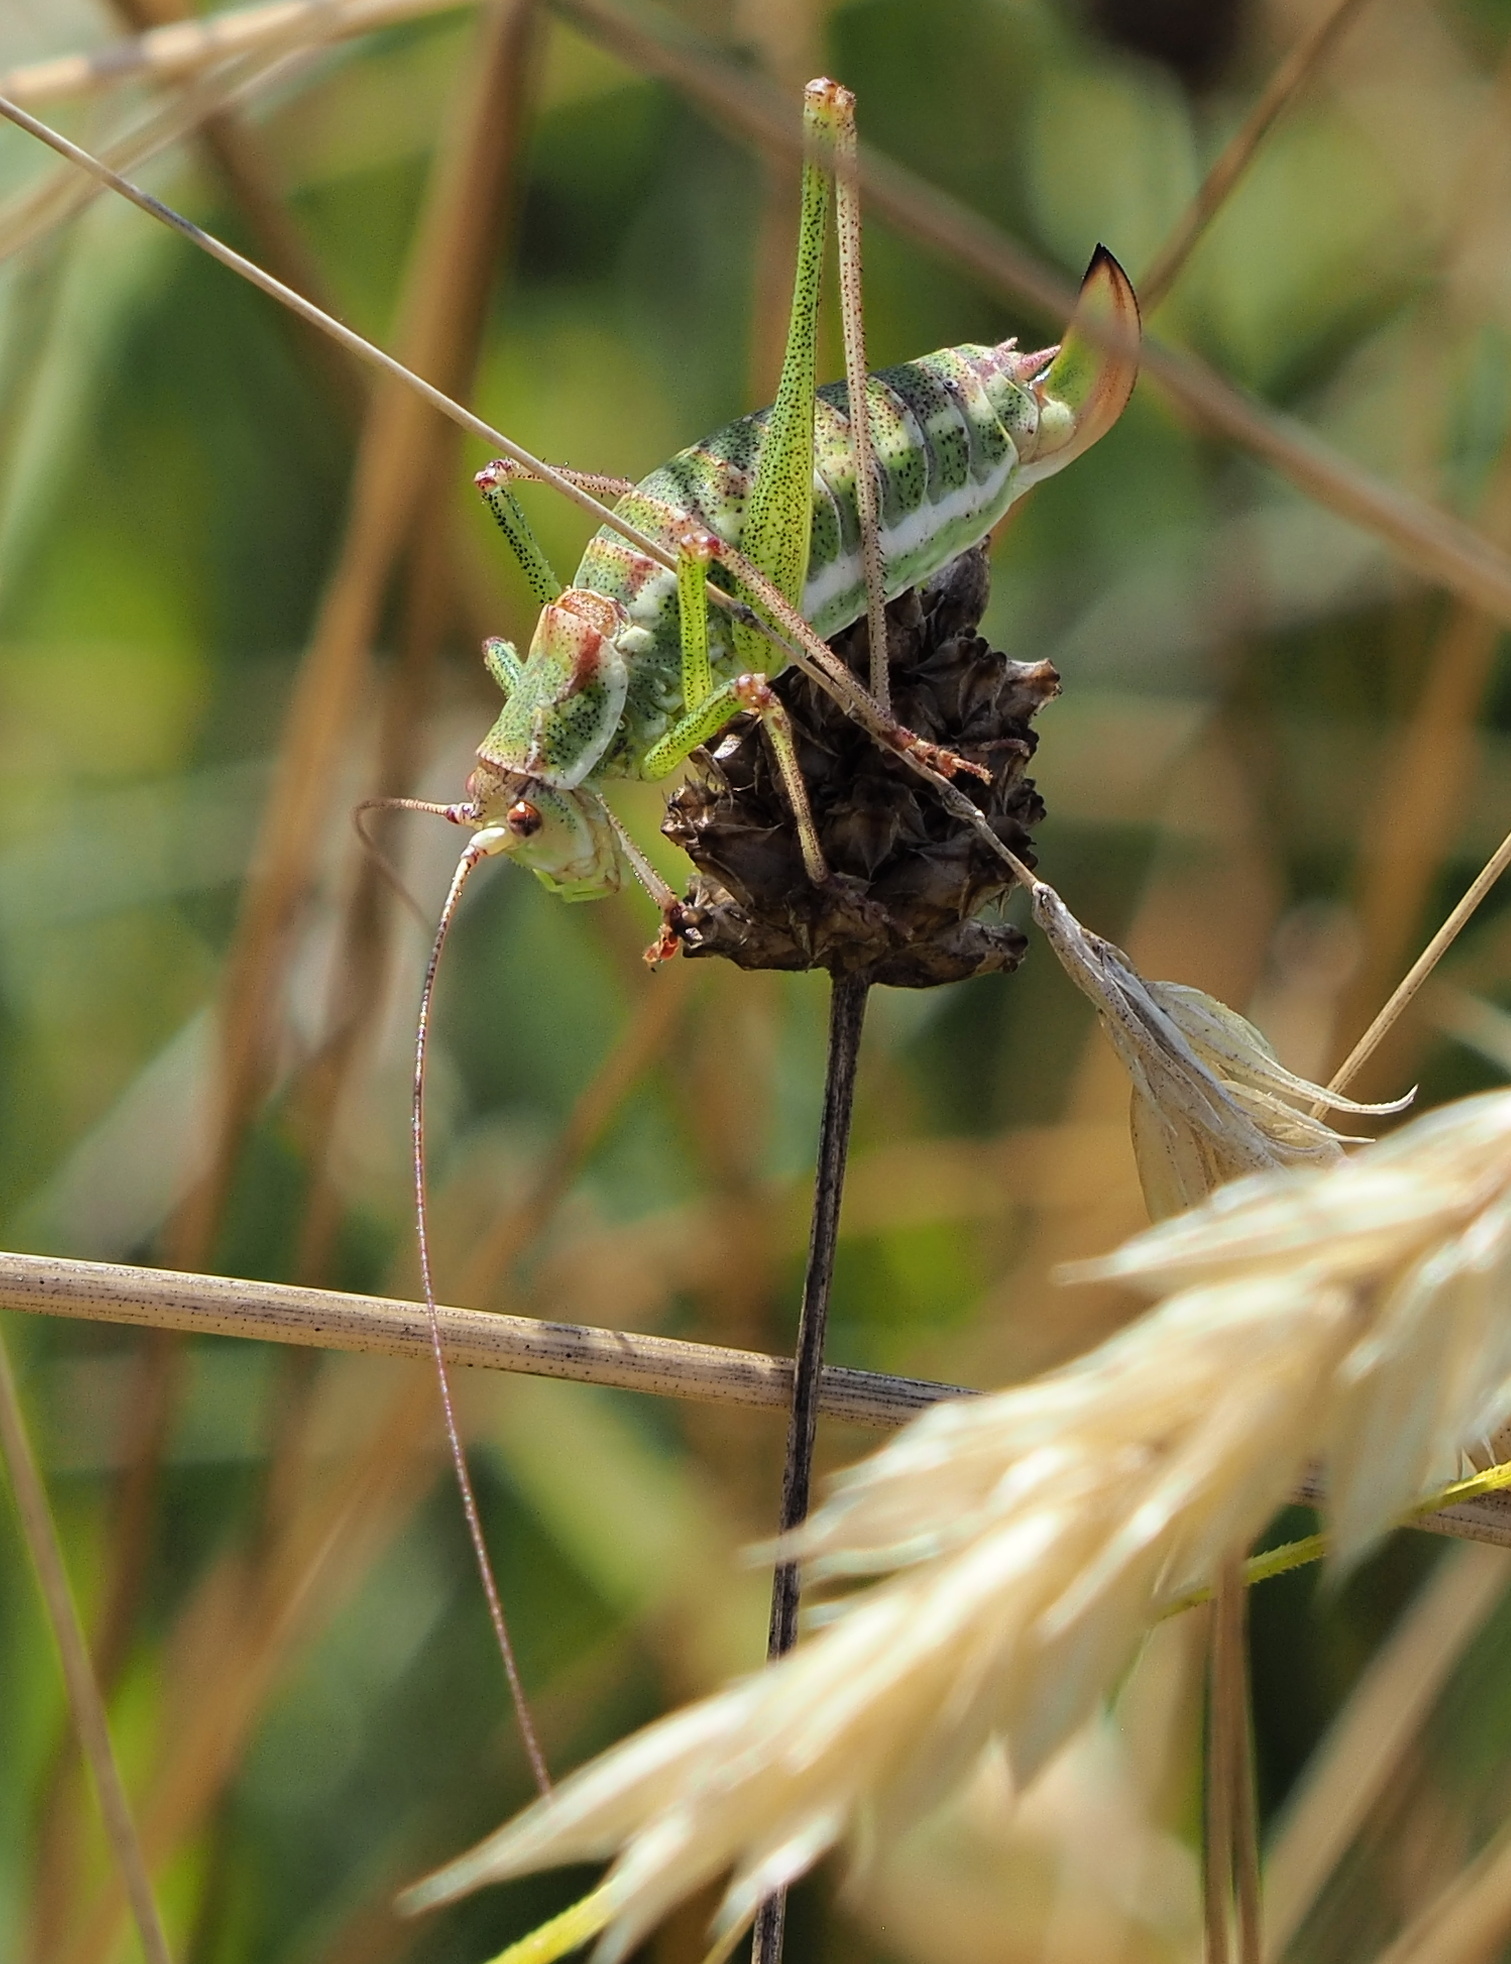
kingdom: Animalia
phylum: Arthropoda
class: Insecta
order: Orthoptera
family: Tettigoniidae
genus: Leptophyes
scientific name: Leptophyes albovittata
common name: Striped bush-cricket
